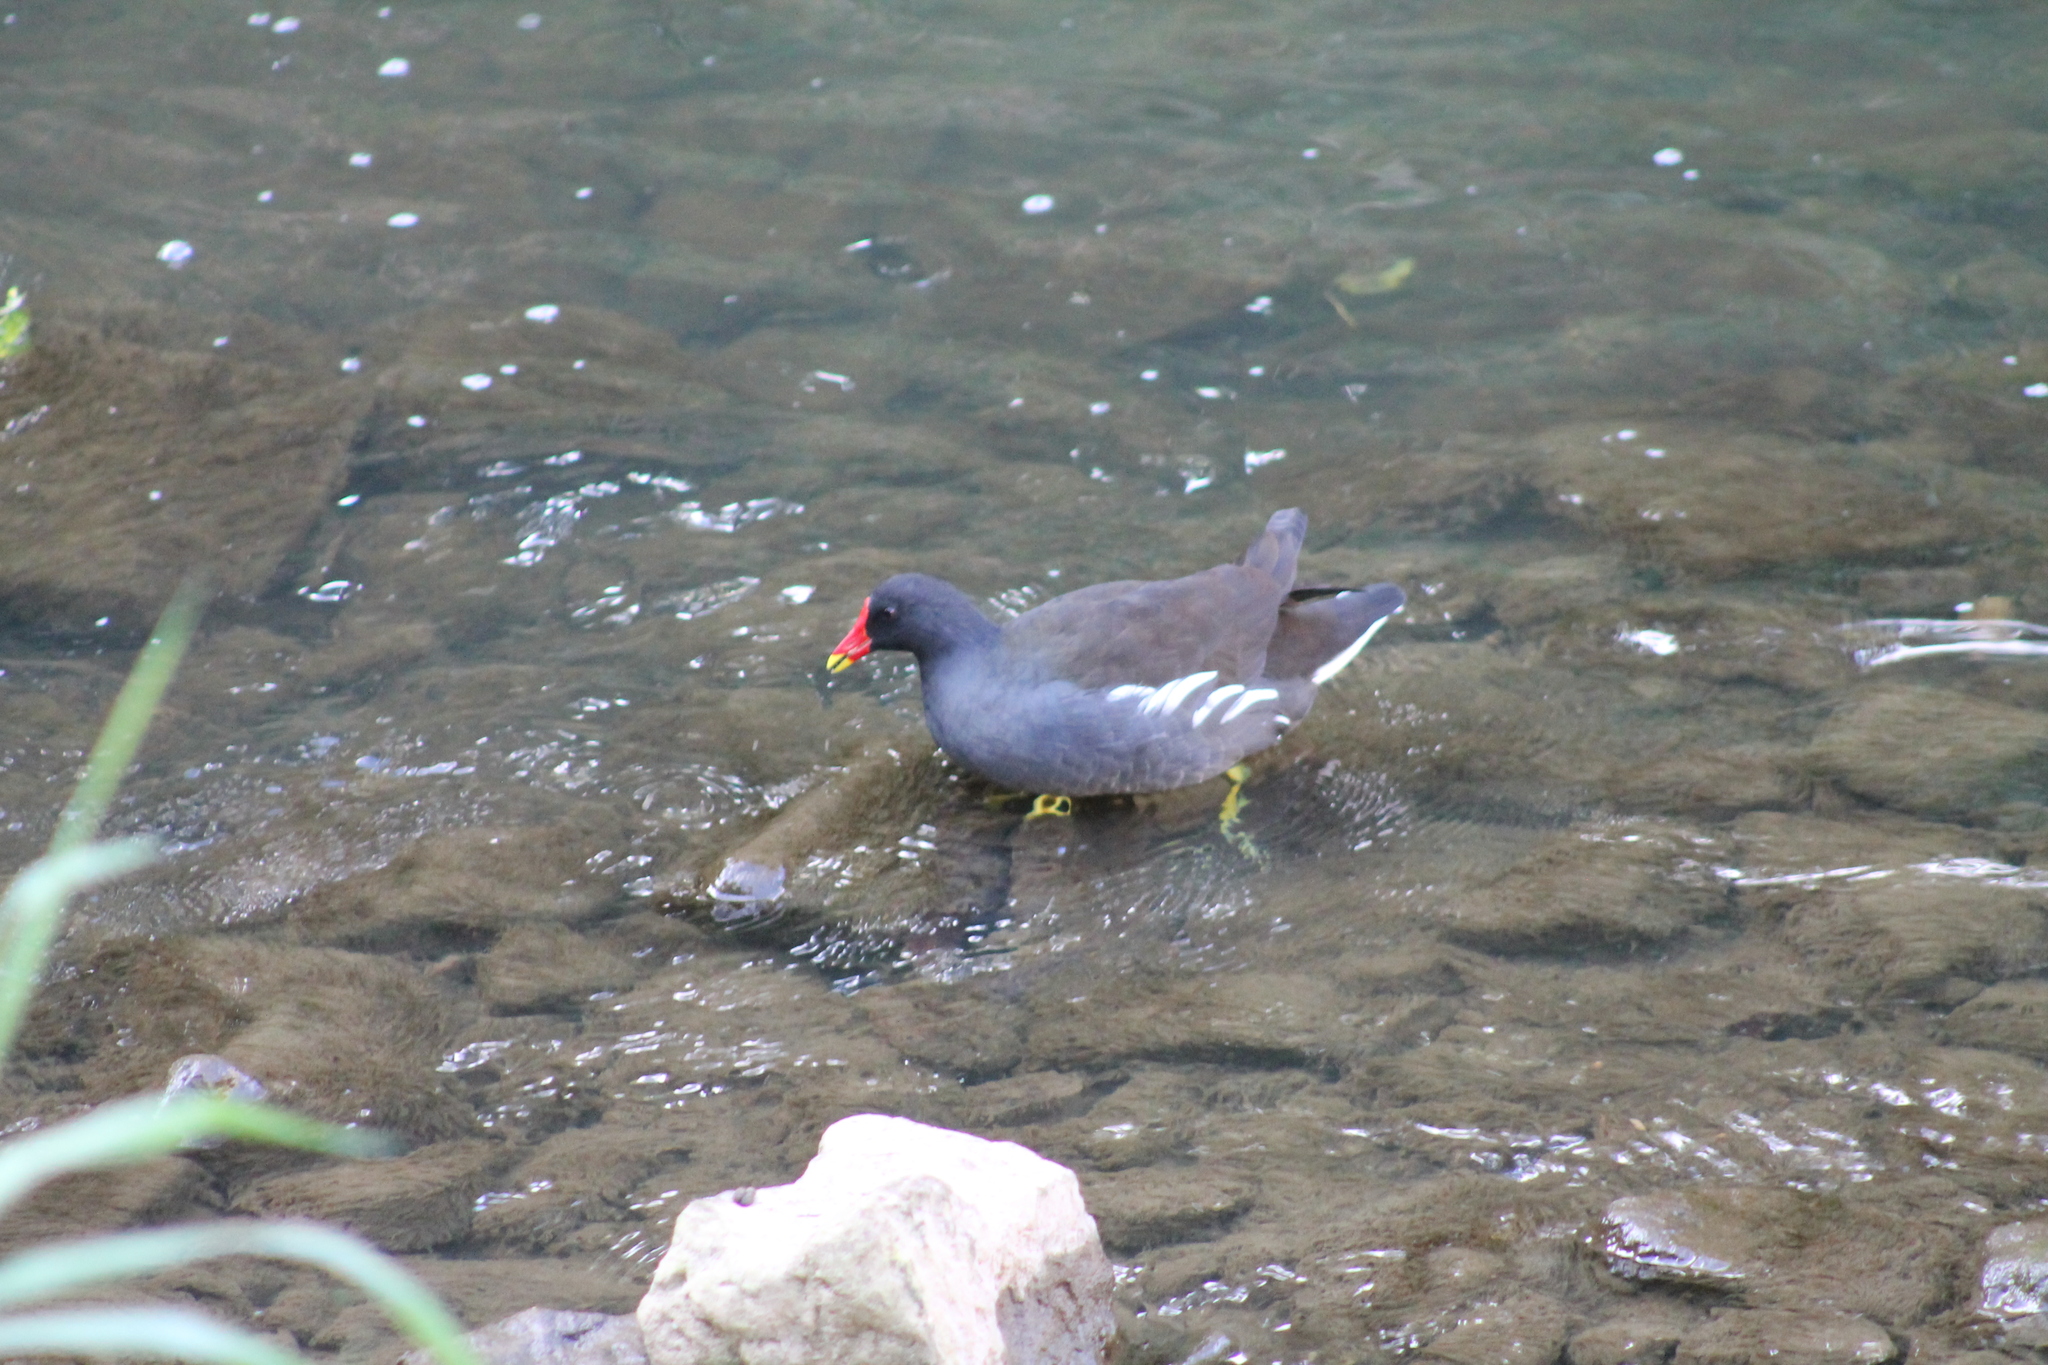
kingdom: Animalia
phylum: Chordata
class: Aves
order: Gruiformes
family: Rallidae
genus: Gallinula
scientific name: Gallinula chloropus
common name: Common moorhen
